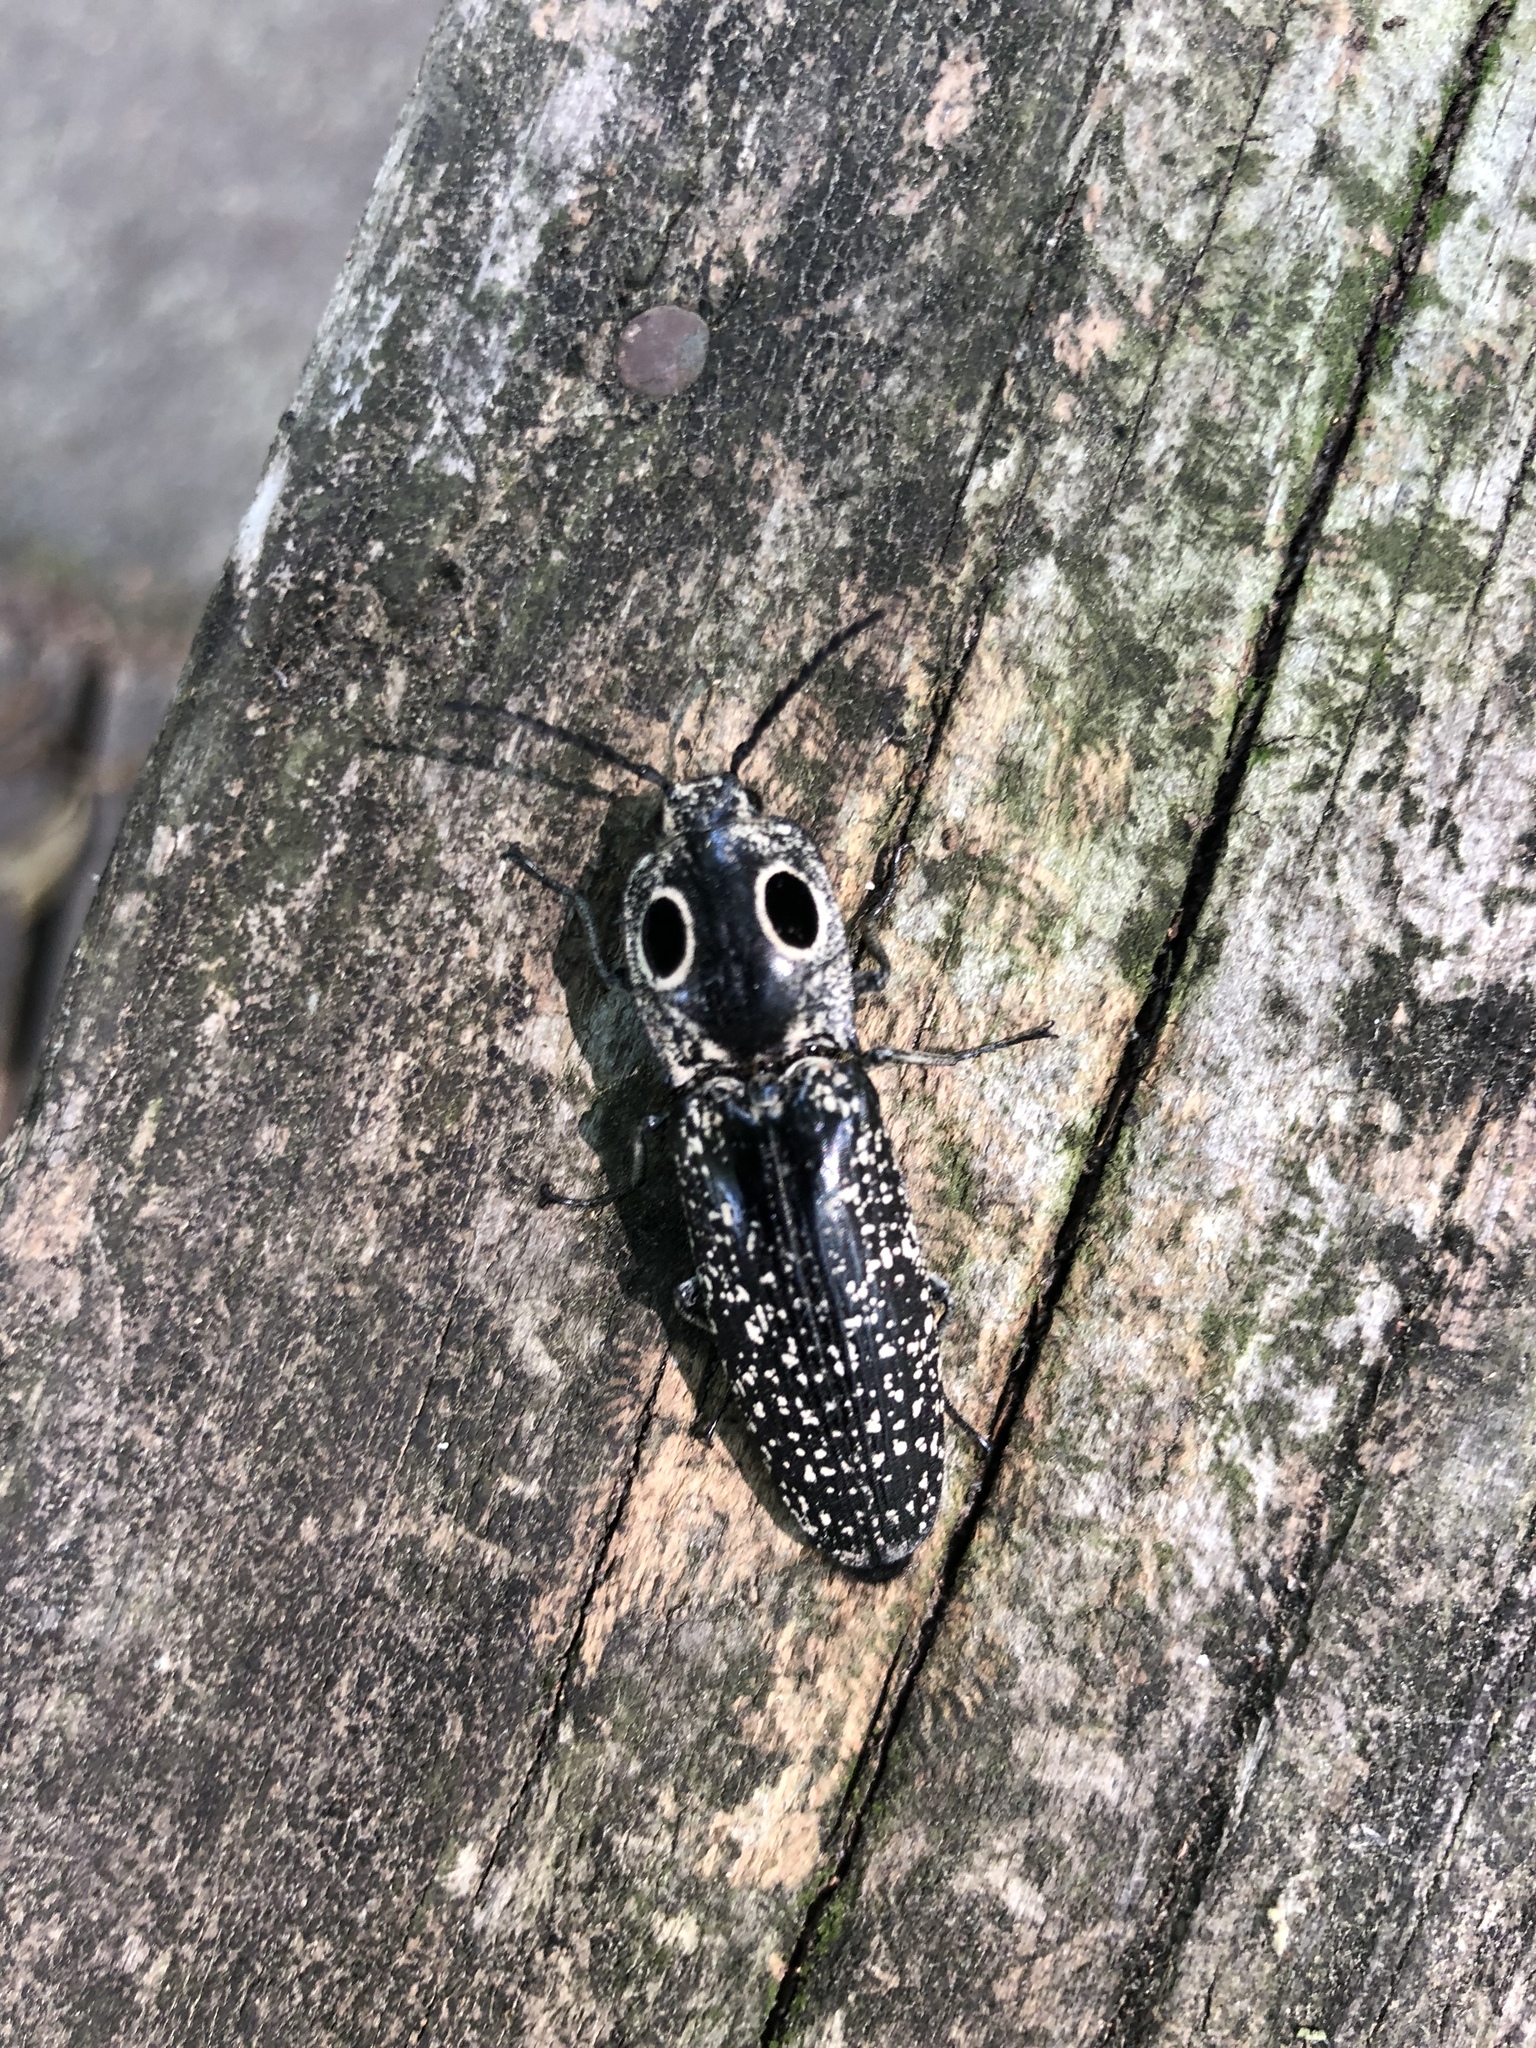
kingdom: Animalia
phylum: Arthropoda
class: Insecta
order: Coleoptera
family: Elateridae
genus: Alaus
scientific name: Alaus oculatus
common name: Eastern eyed click beetle
